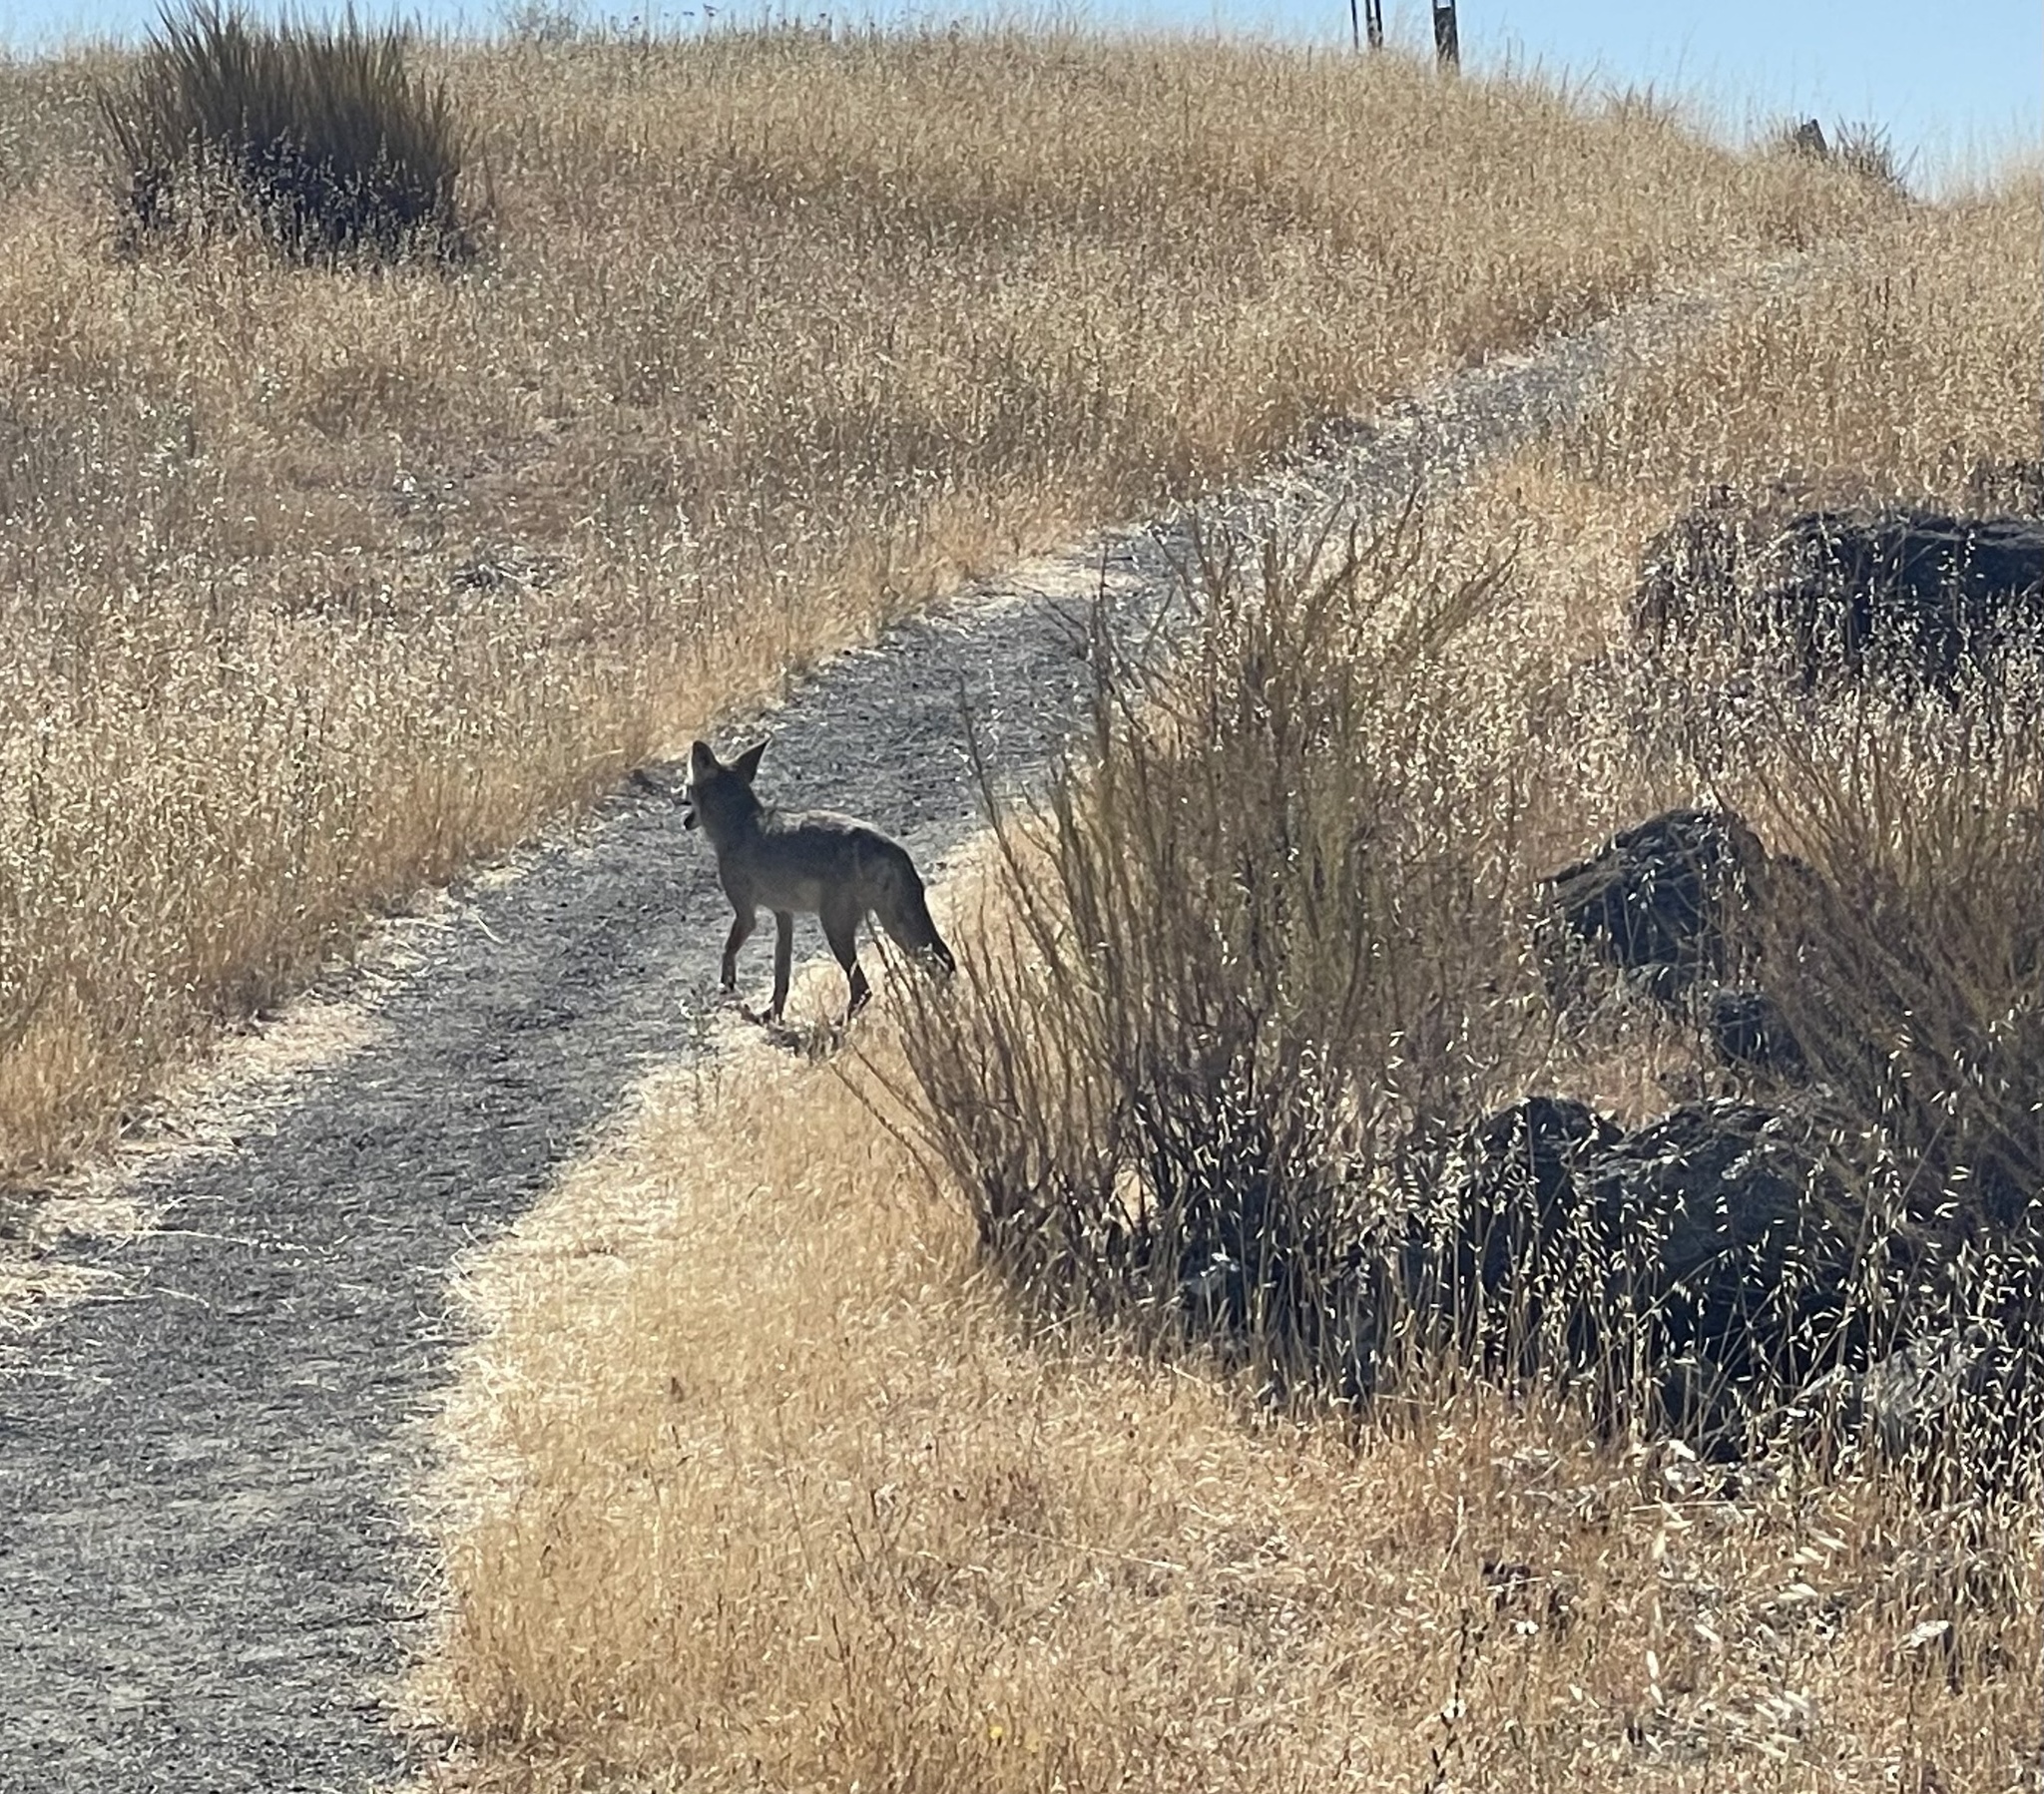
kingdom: Animalia
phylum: Chordata
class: Mammalia
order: Carnivora
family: Canidae
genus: Canis
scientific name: Canis latrans
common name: Coyote
